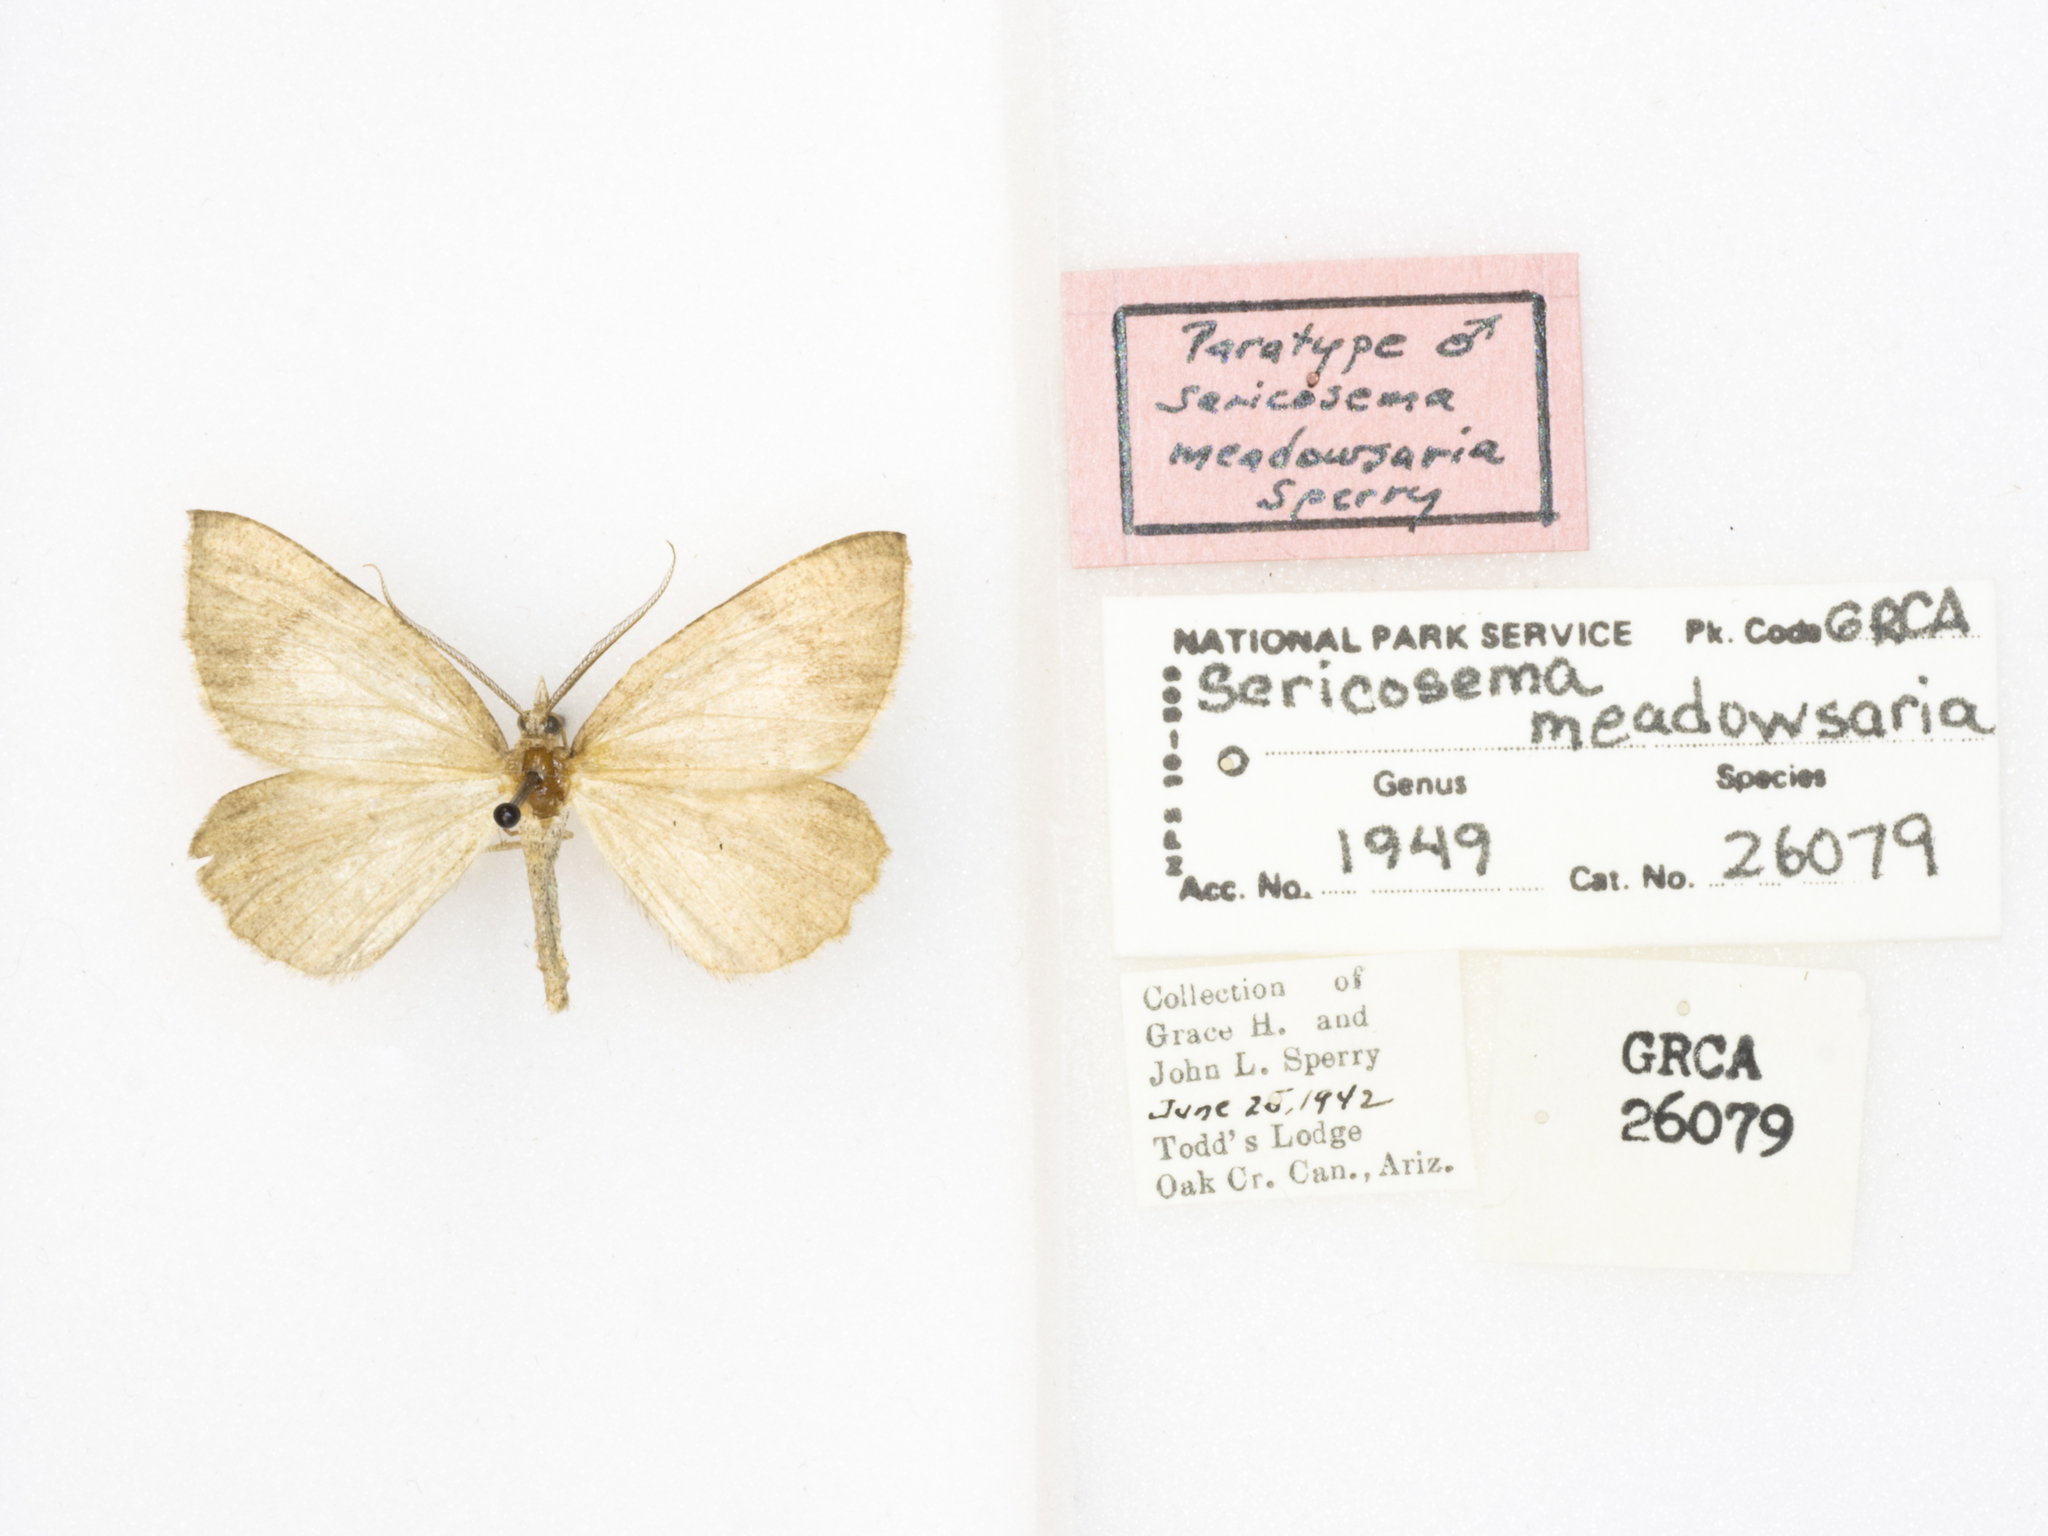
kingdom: Animalia
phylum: Arthropoda
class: Insecta
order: Lepidoptera
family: Geometridae
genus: Sericosema
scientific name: Sericosema wilsonensis
